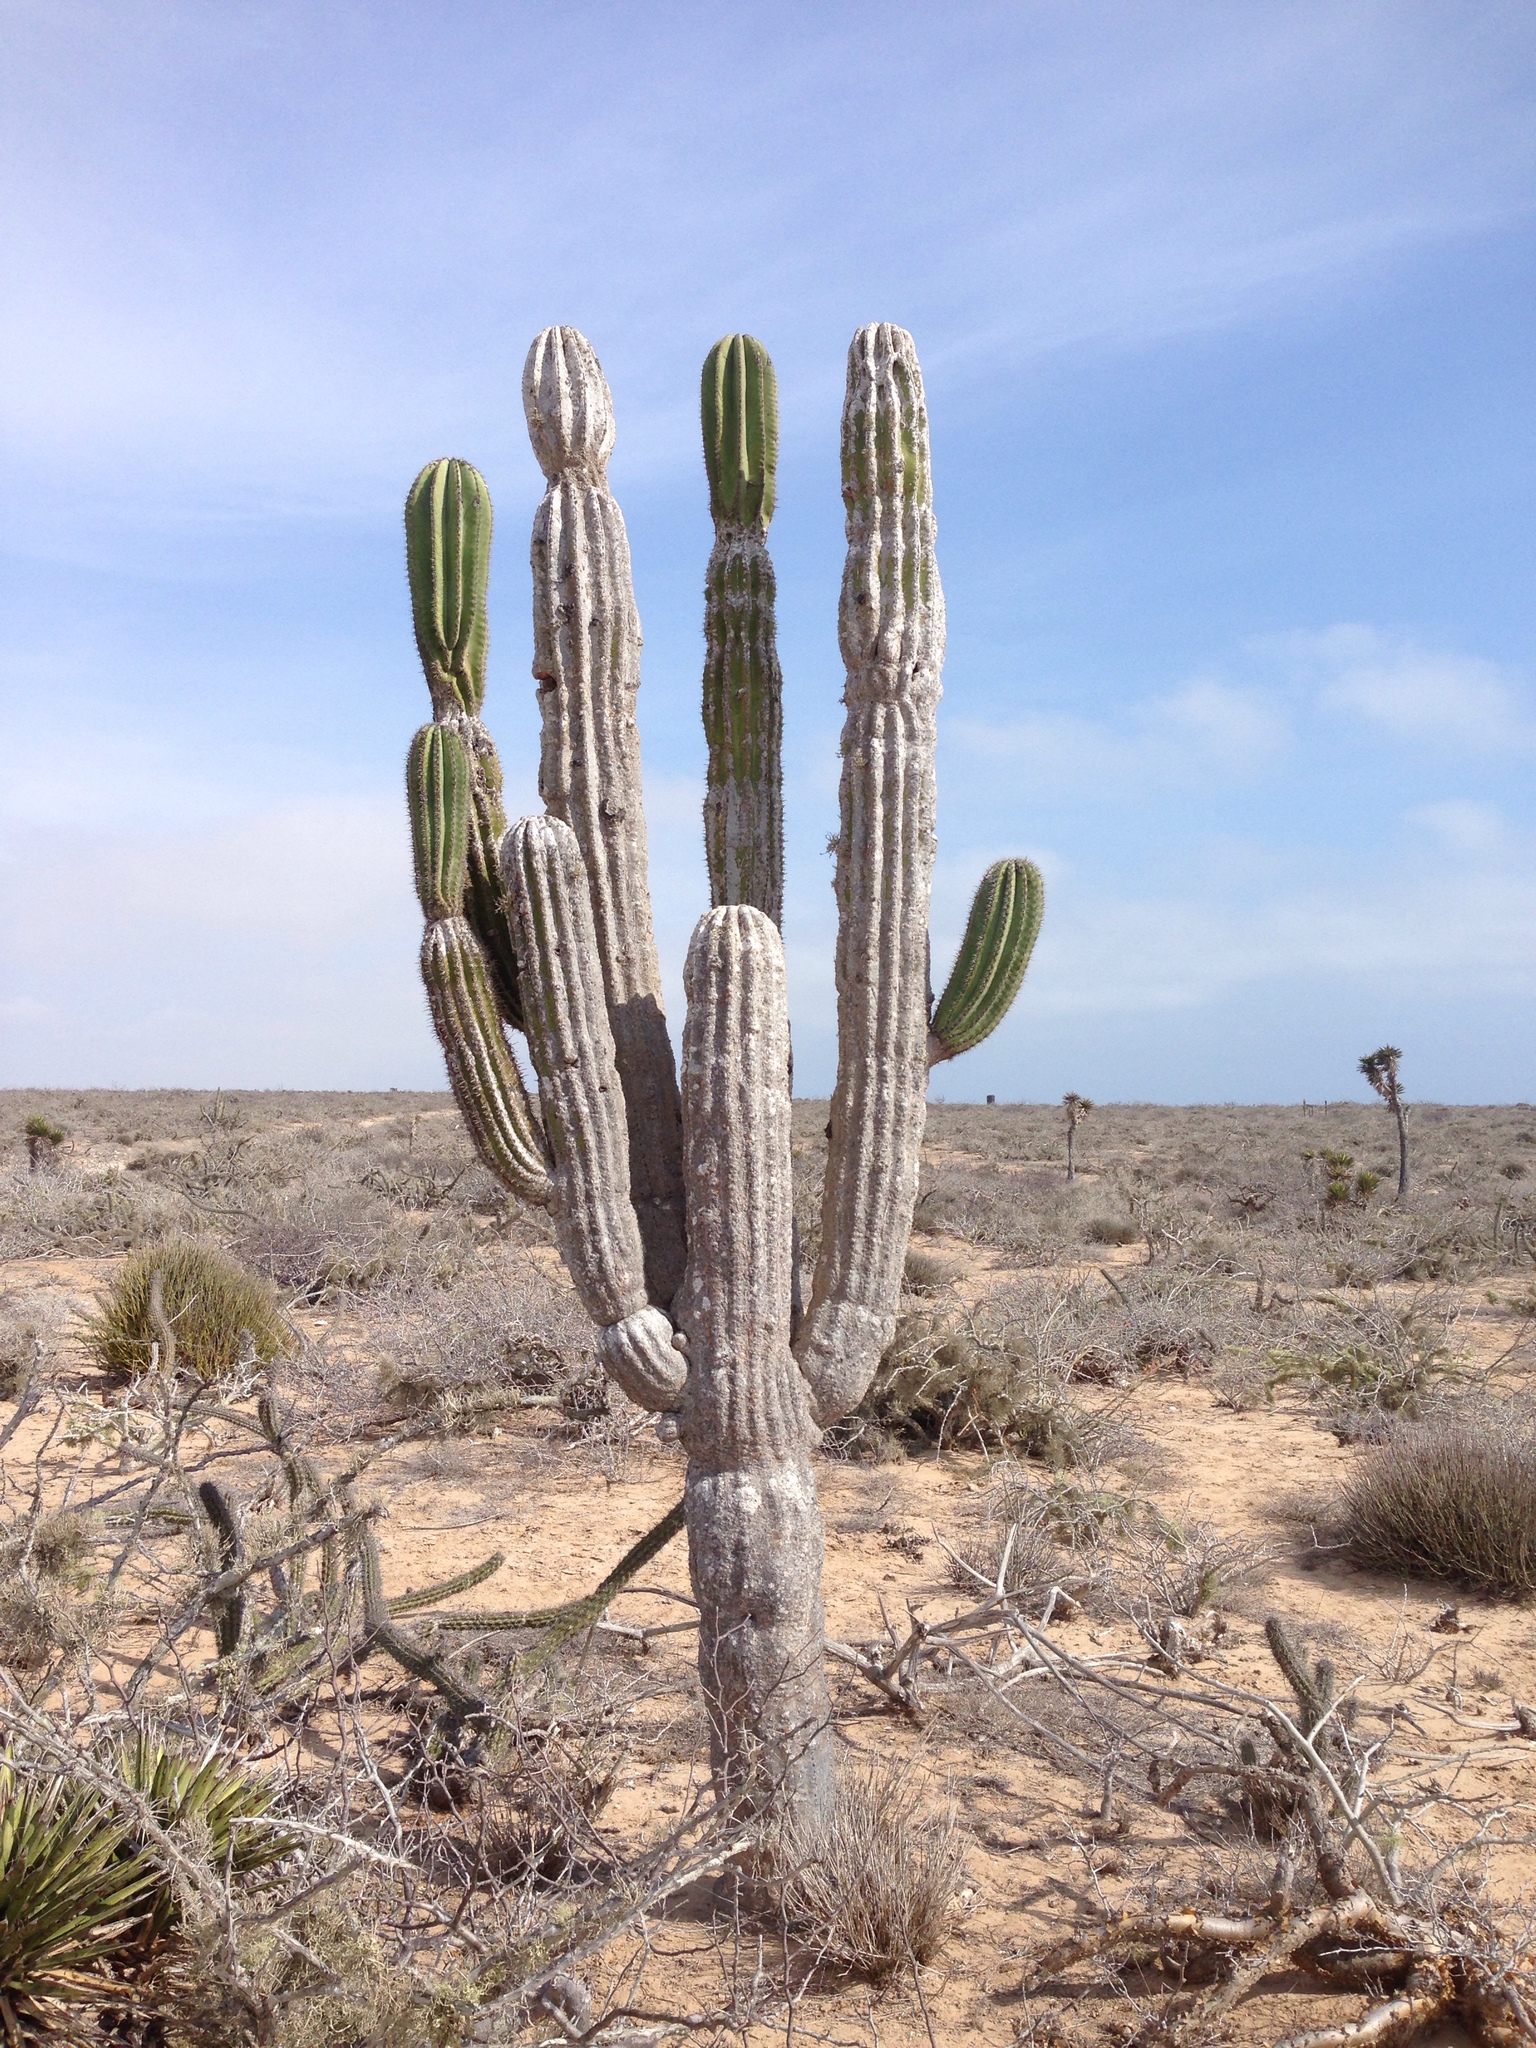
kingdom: Plantae
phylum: Tracheophyta
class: Magnoliopsida
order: Caryophyllales
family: Cactaceae
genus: Pachycereus
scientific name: Pachycereus pringlei
